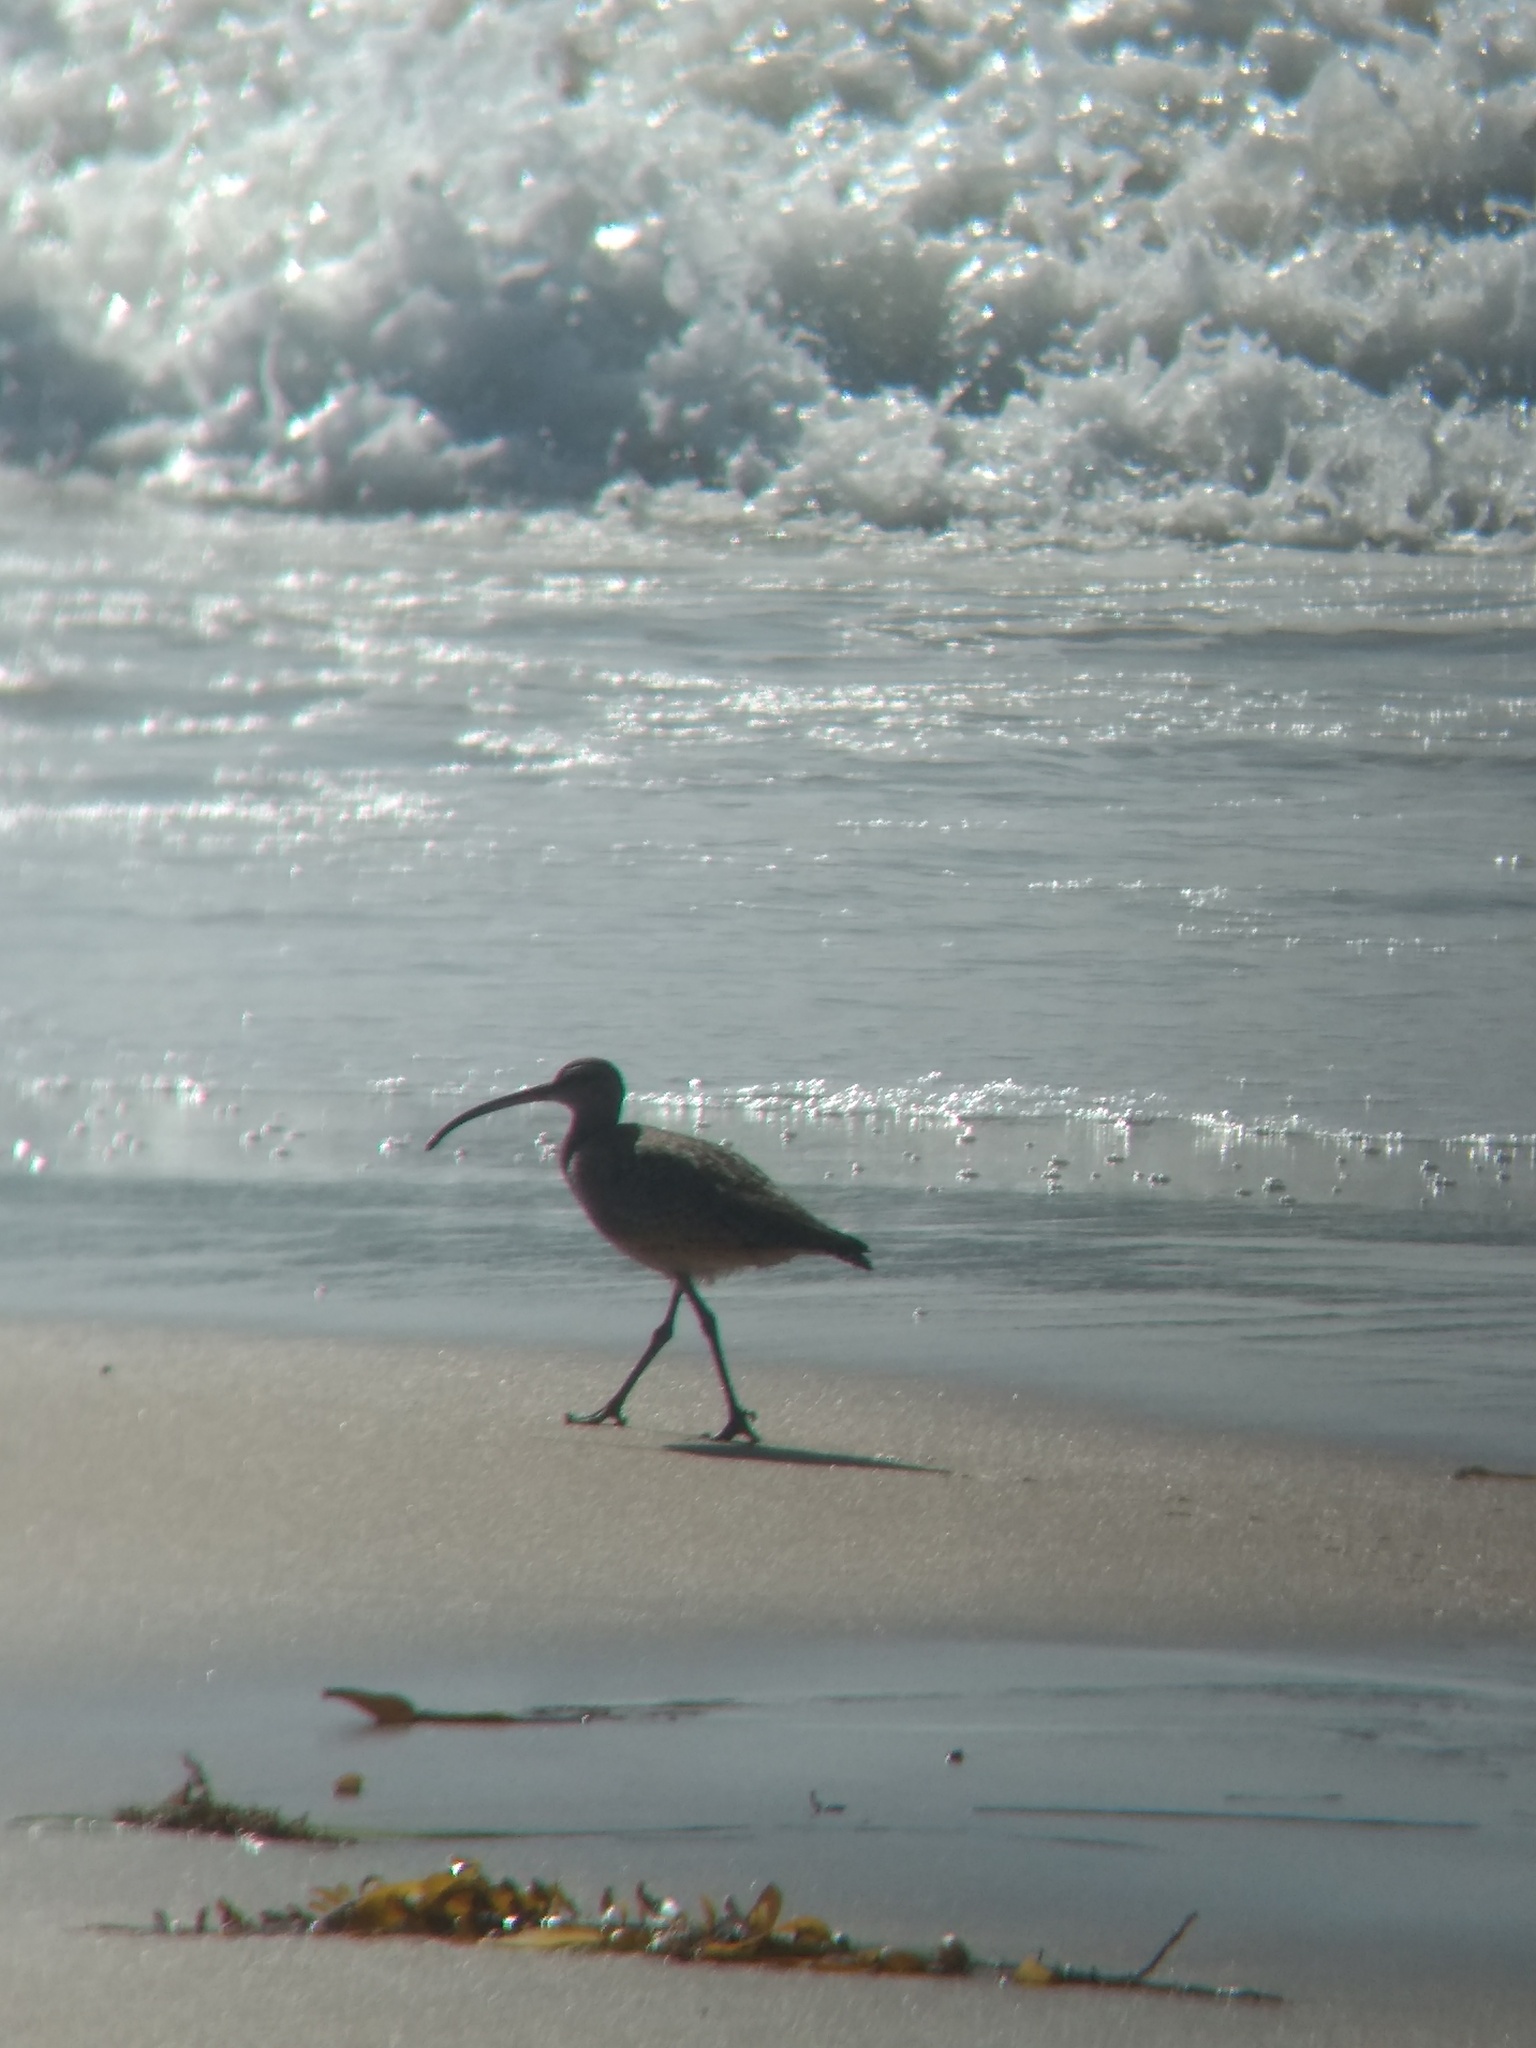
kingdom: Animalia
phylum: Chordata
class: Aves
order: Charadriiformes
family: Scolopacidae
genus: Numenius
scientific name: Numenius phaeopus
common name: Whimbrel
